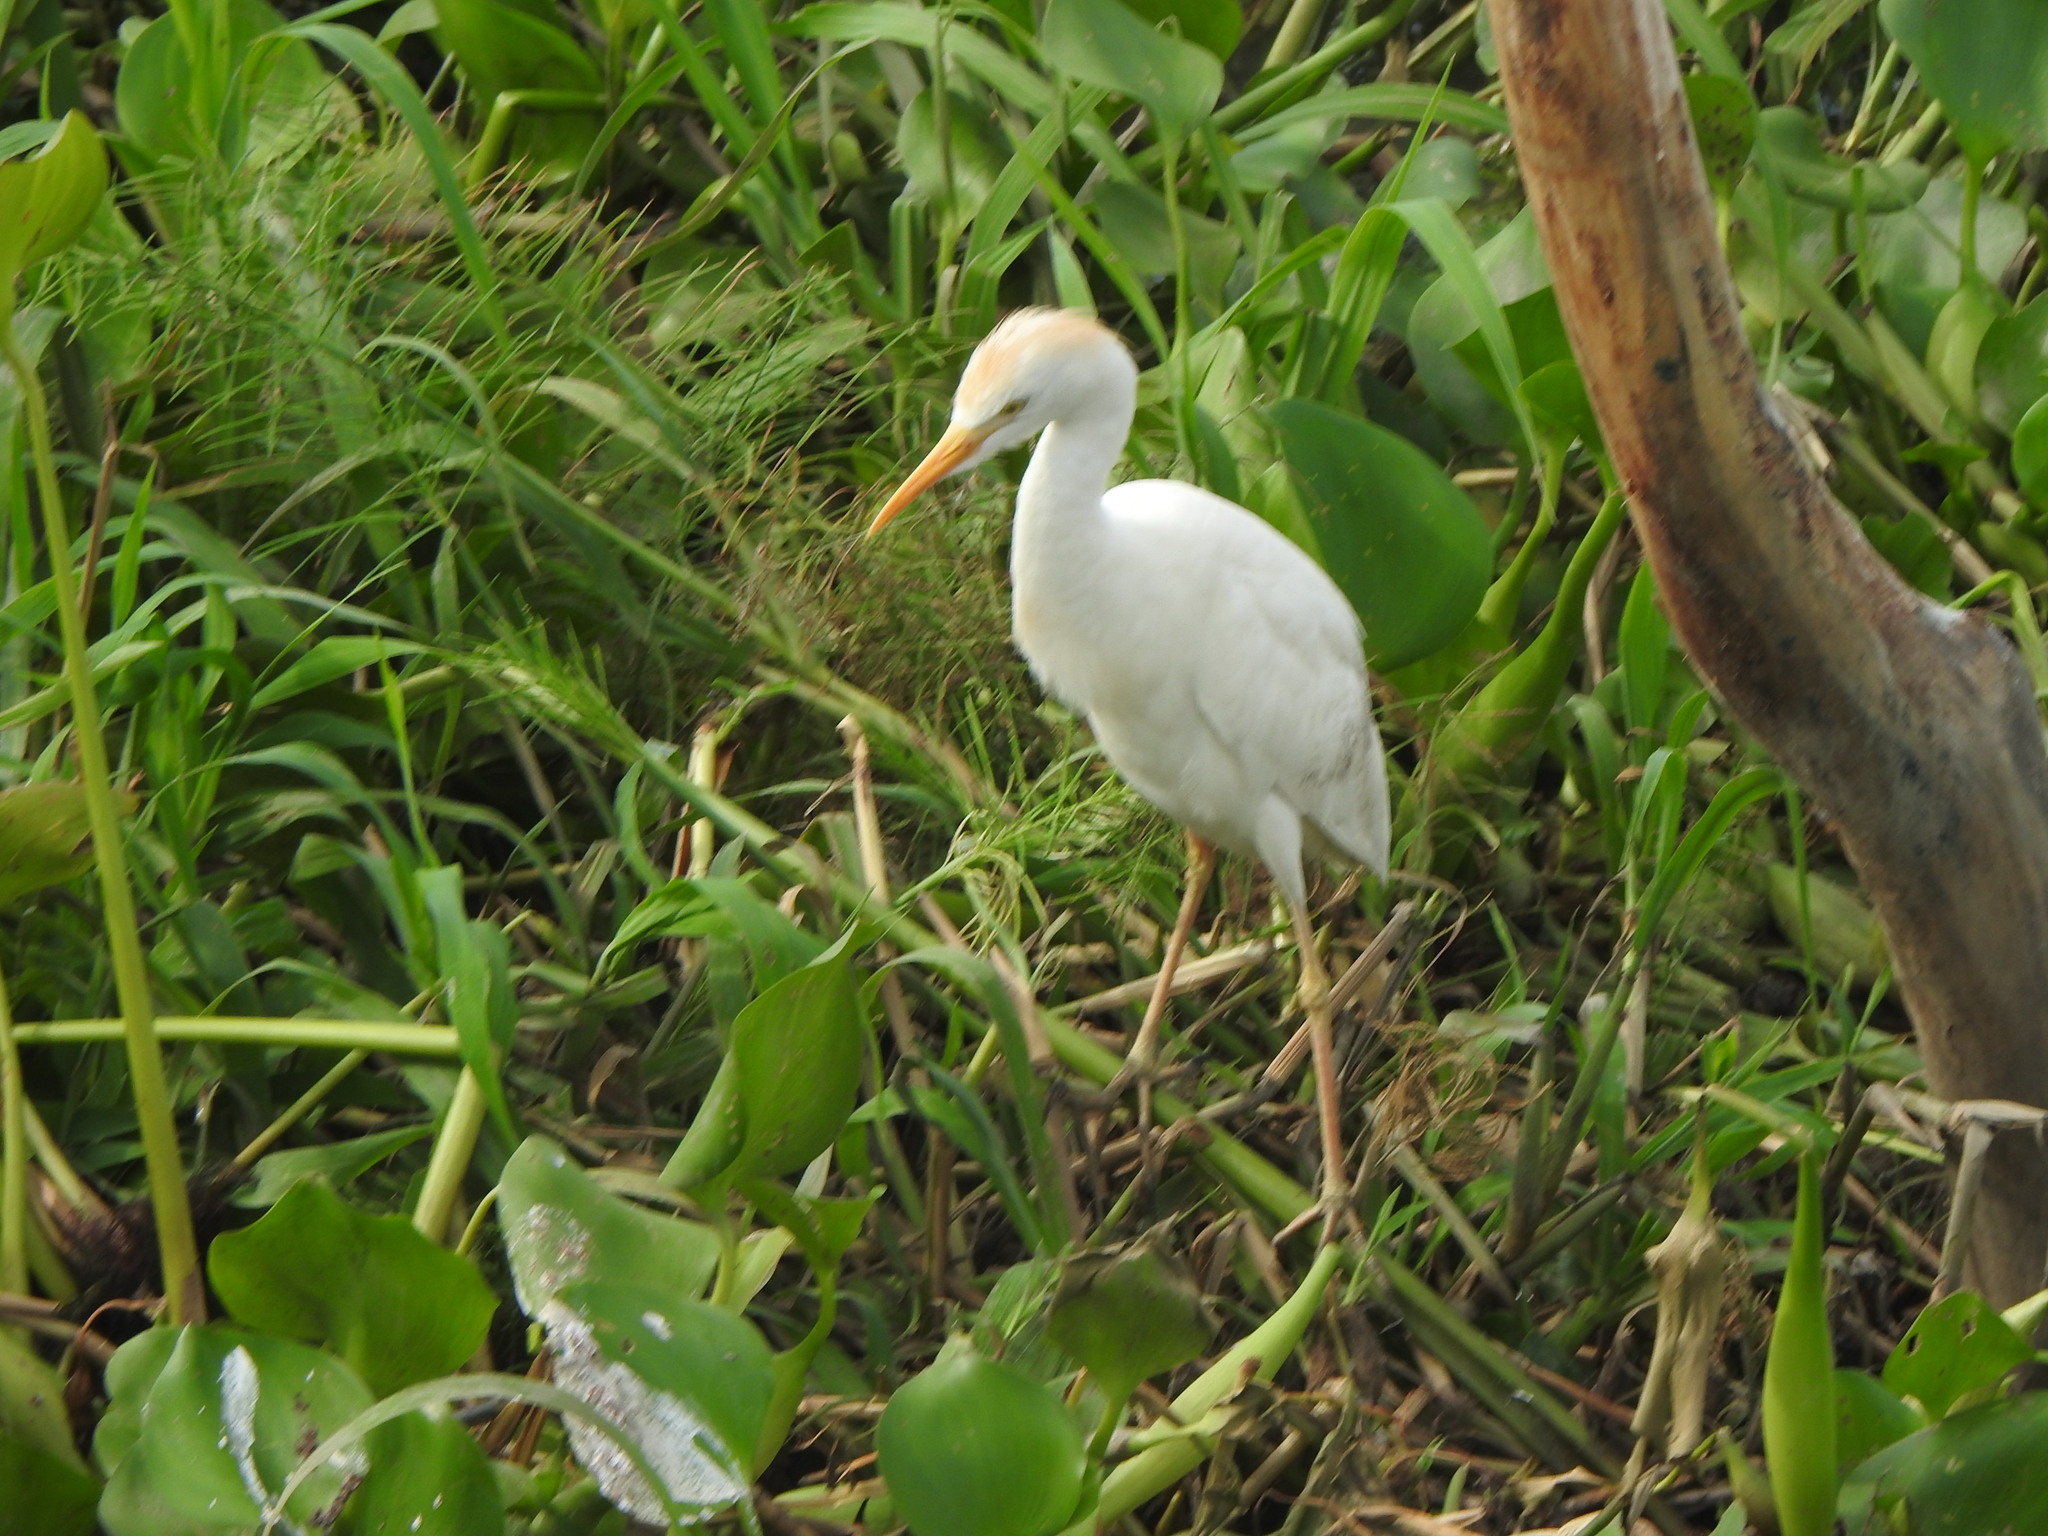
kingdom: Animalia
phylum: Chordata
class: Aves
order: Pelecaniformes
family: Ardeidae
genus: Bubulcus
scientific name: Bubulcus ibis
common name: Cattle egret
